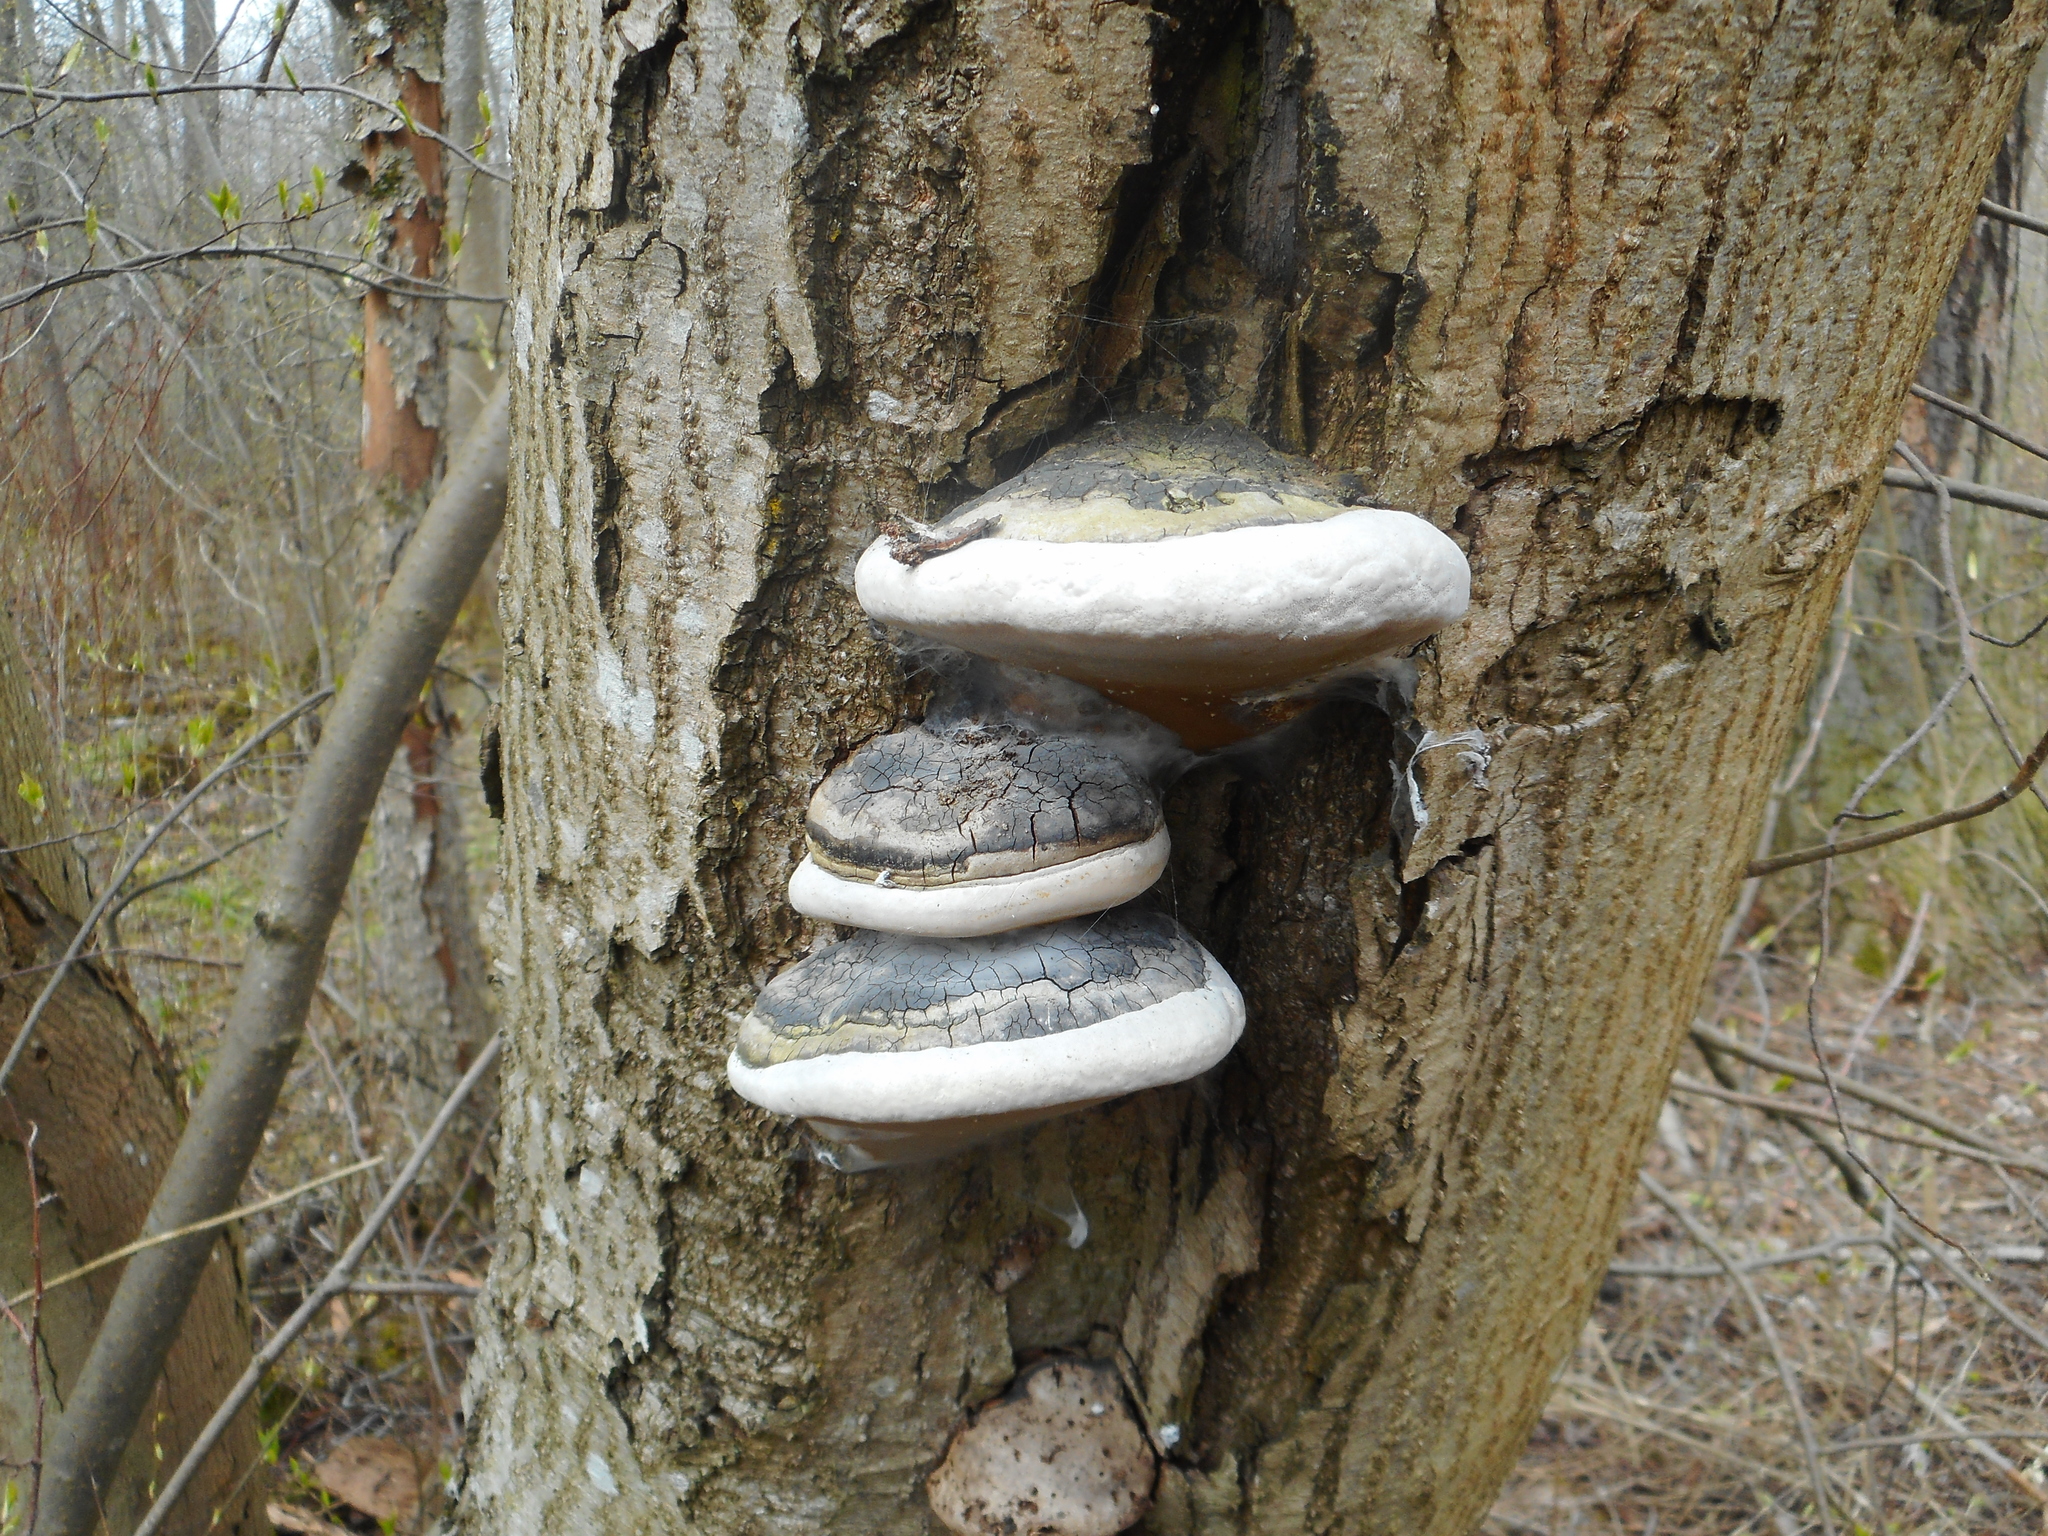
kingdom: Fungi
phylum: Basidiomycota
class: Agaricomycetes
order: Hymenochaetales
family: Hymenochaetaceae
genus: Phellinus
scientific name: Phellinus igniarius
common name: Willow bracket
